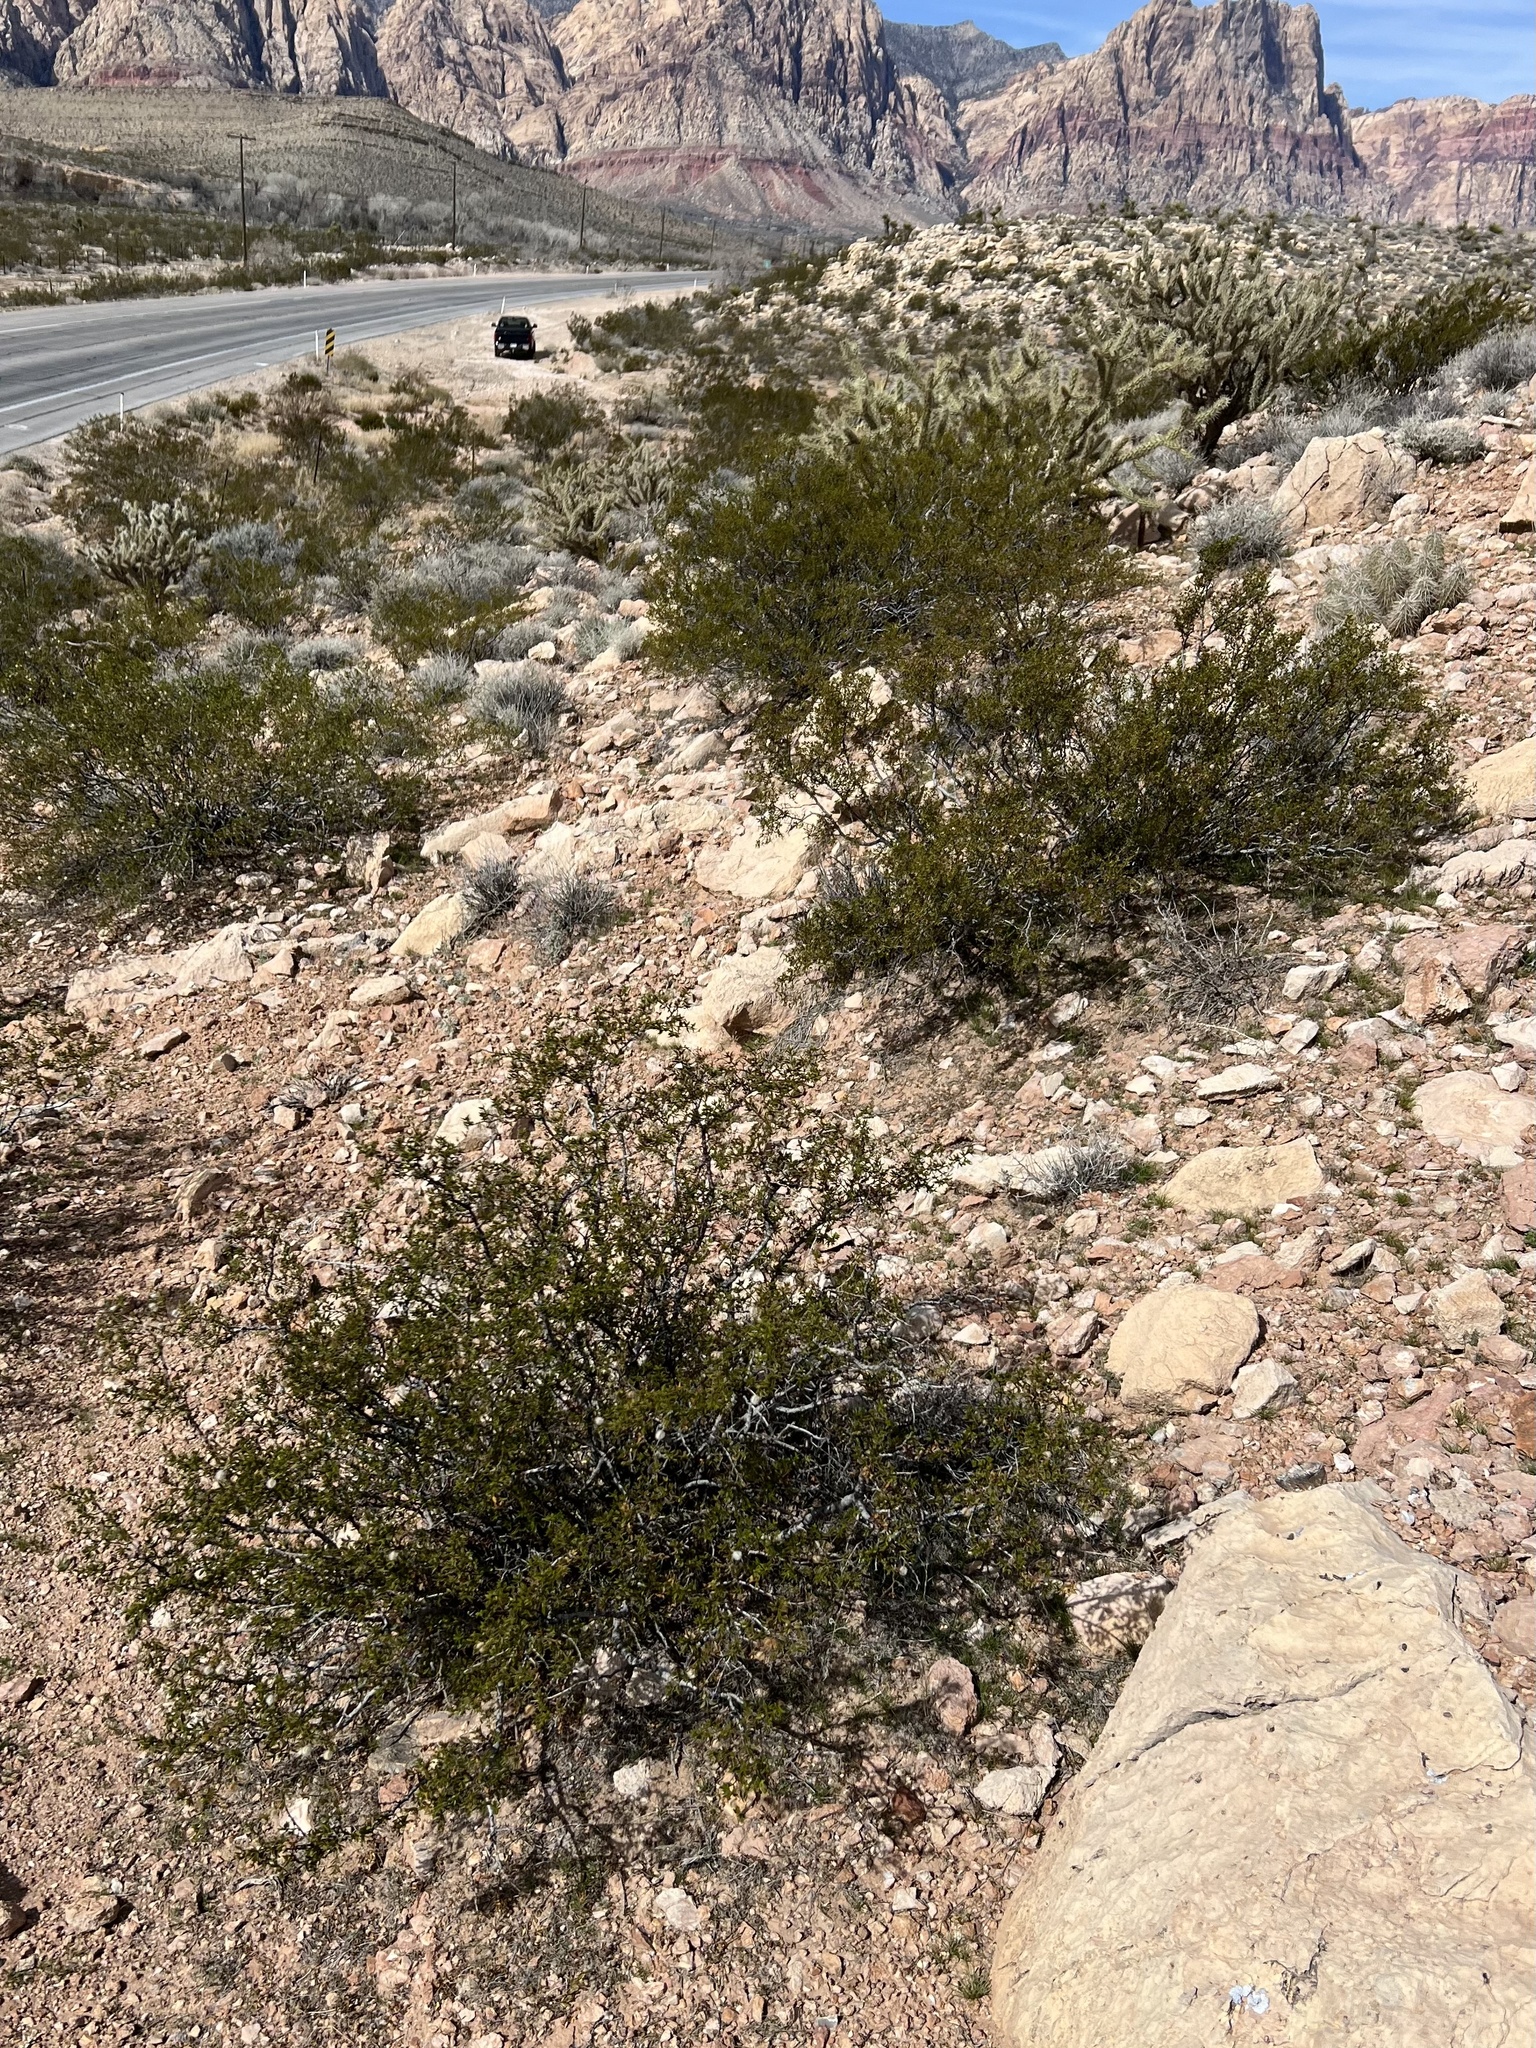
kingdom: Plantae
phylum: Tracheophyta
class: Magnoliopsida
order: Zygophyllales
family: Zygophyllaceae
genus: Larrea
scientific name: Larrea tridentata
